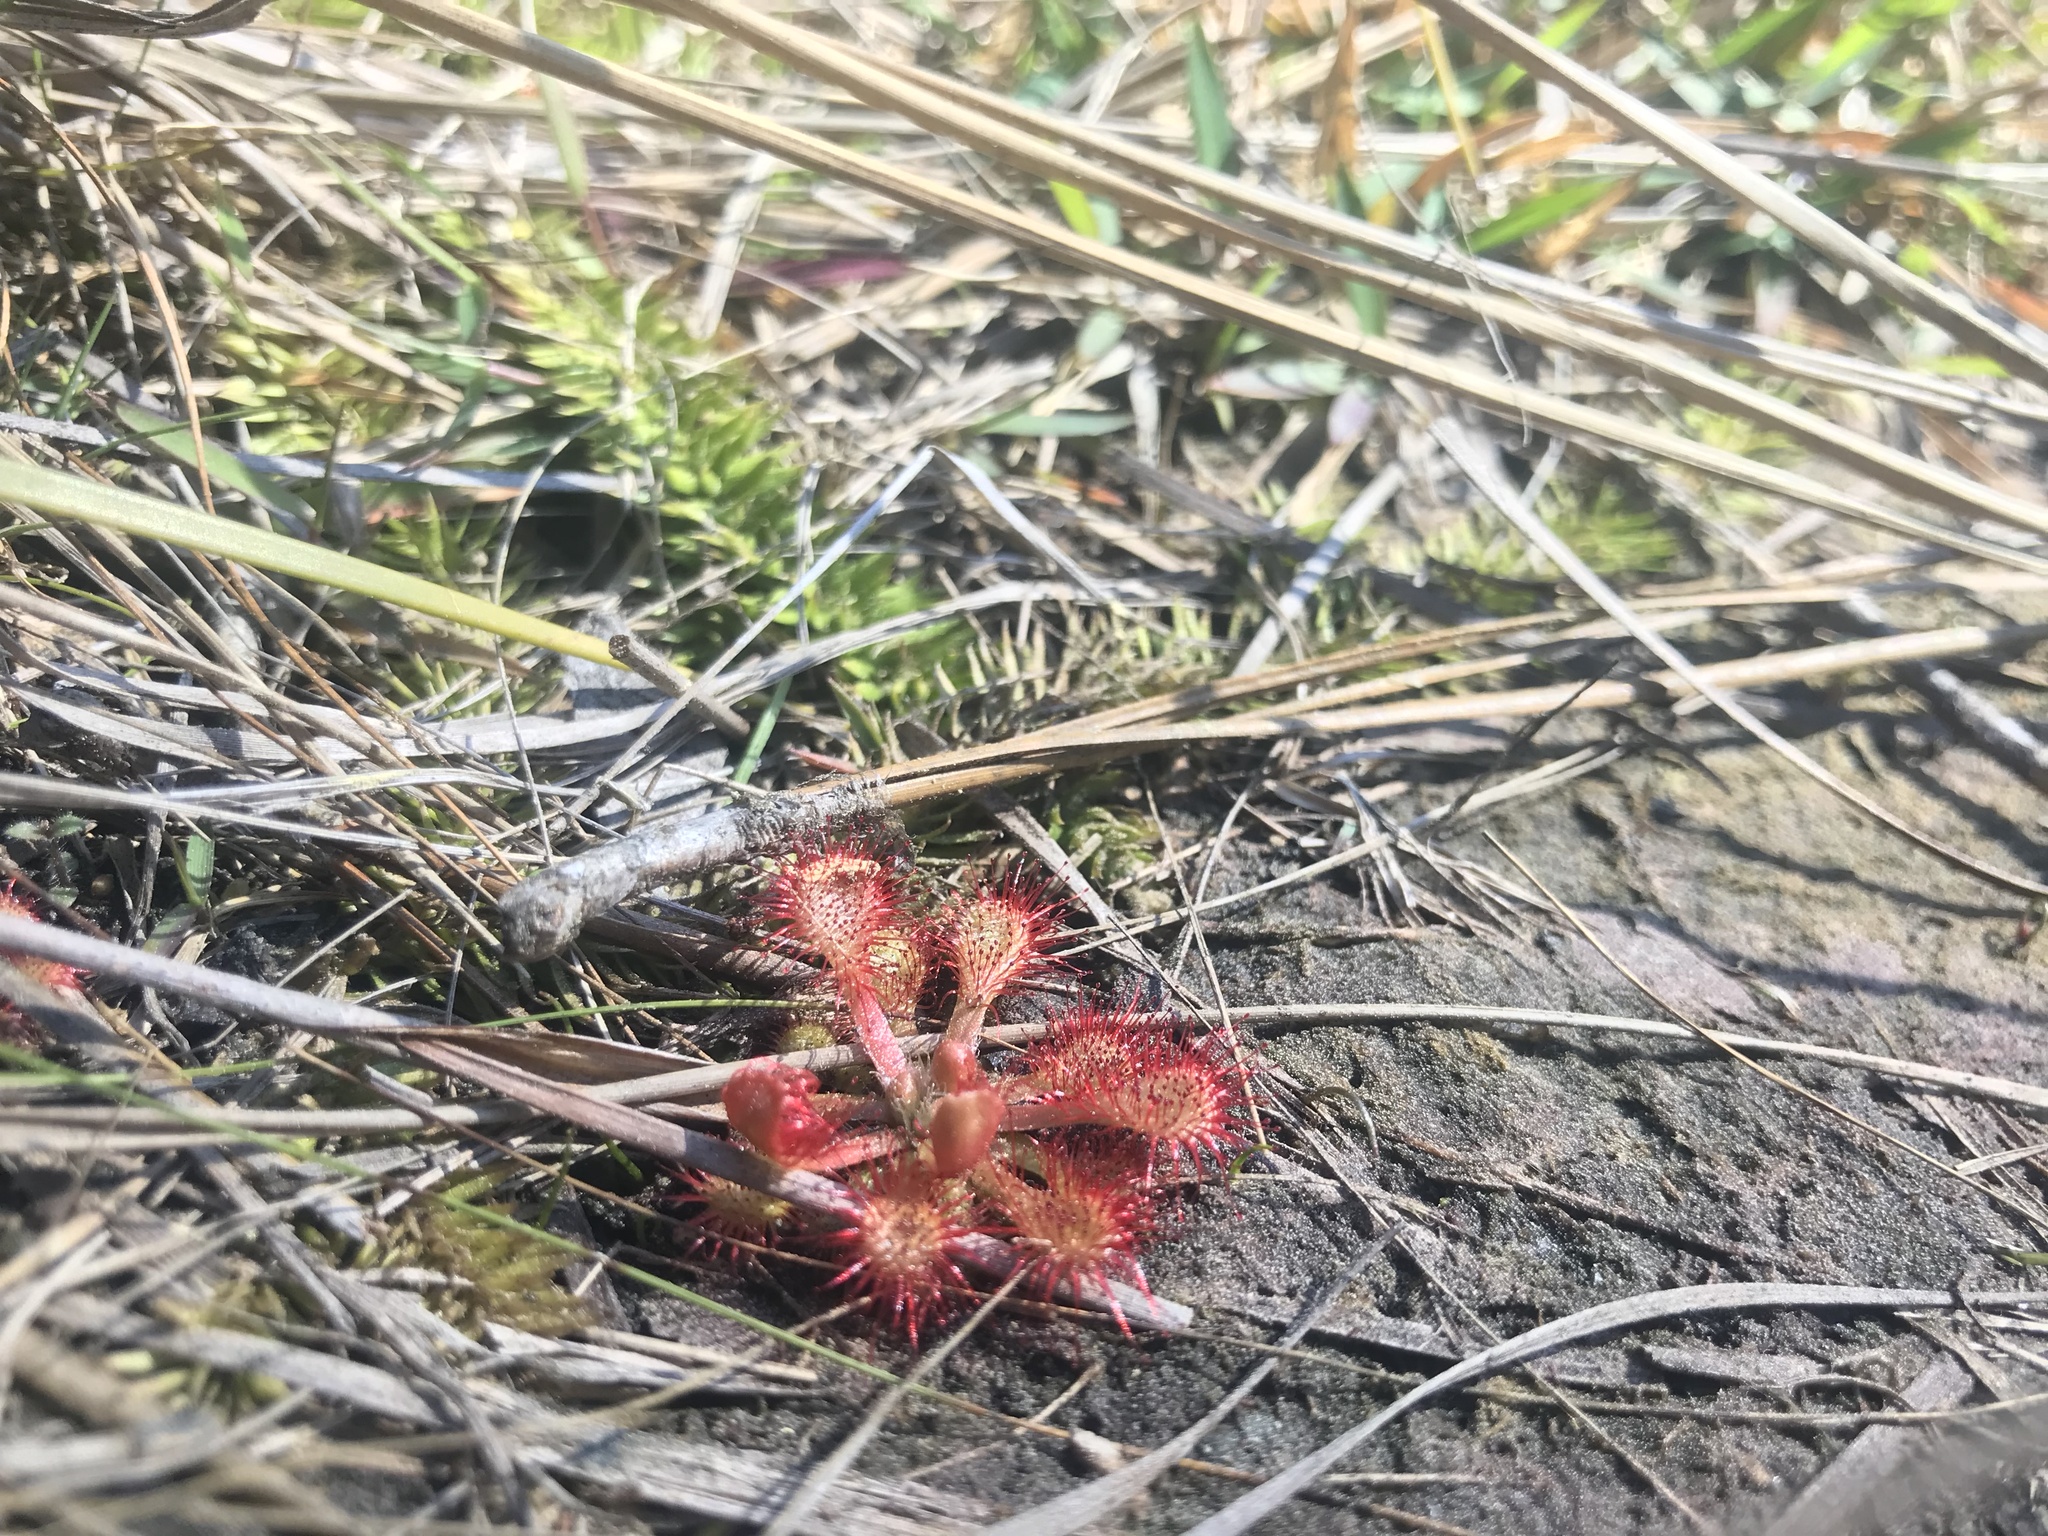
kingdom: Plantae
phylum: Tracheophyta
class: Magnoliopsida
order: Caryophyllales
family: Droseraceae
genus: Drosera
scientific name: Drosera capillaris
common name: Pink sundew
